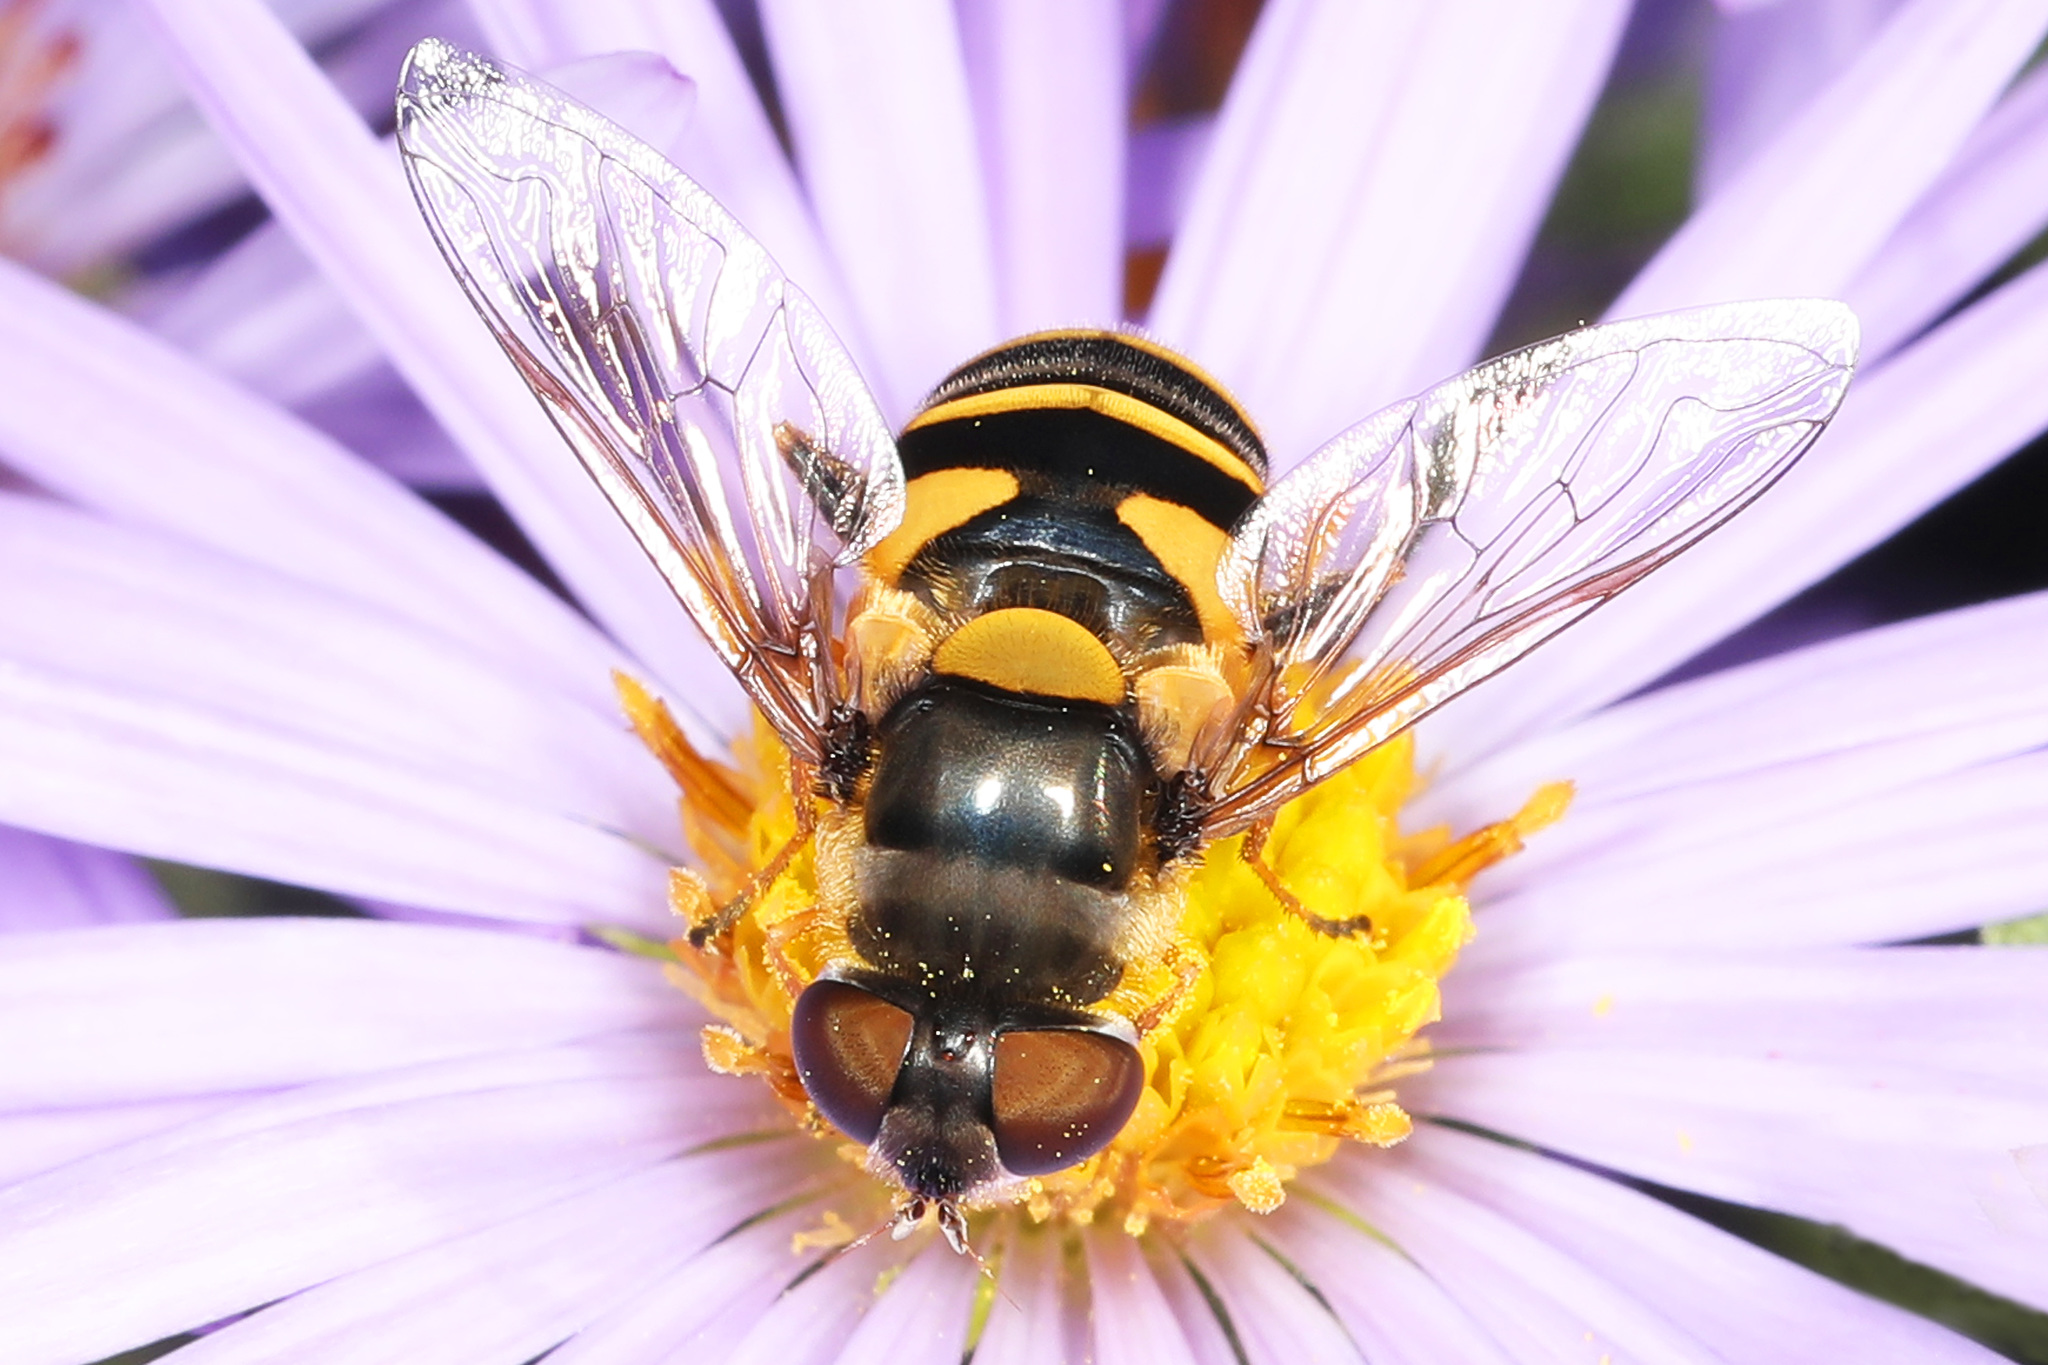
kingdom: Animalia
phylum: Arthropoda
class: Insecta
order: Diptera
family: Syrphidae
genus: Eristalis
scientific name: Eristalis transversa
